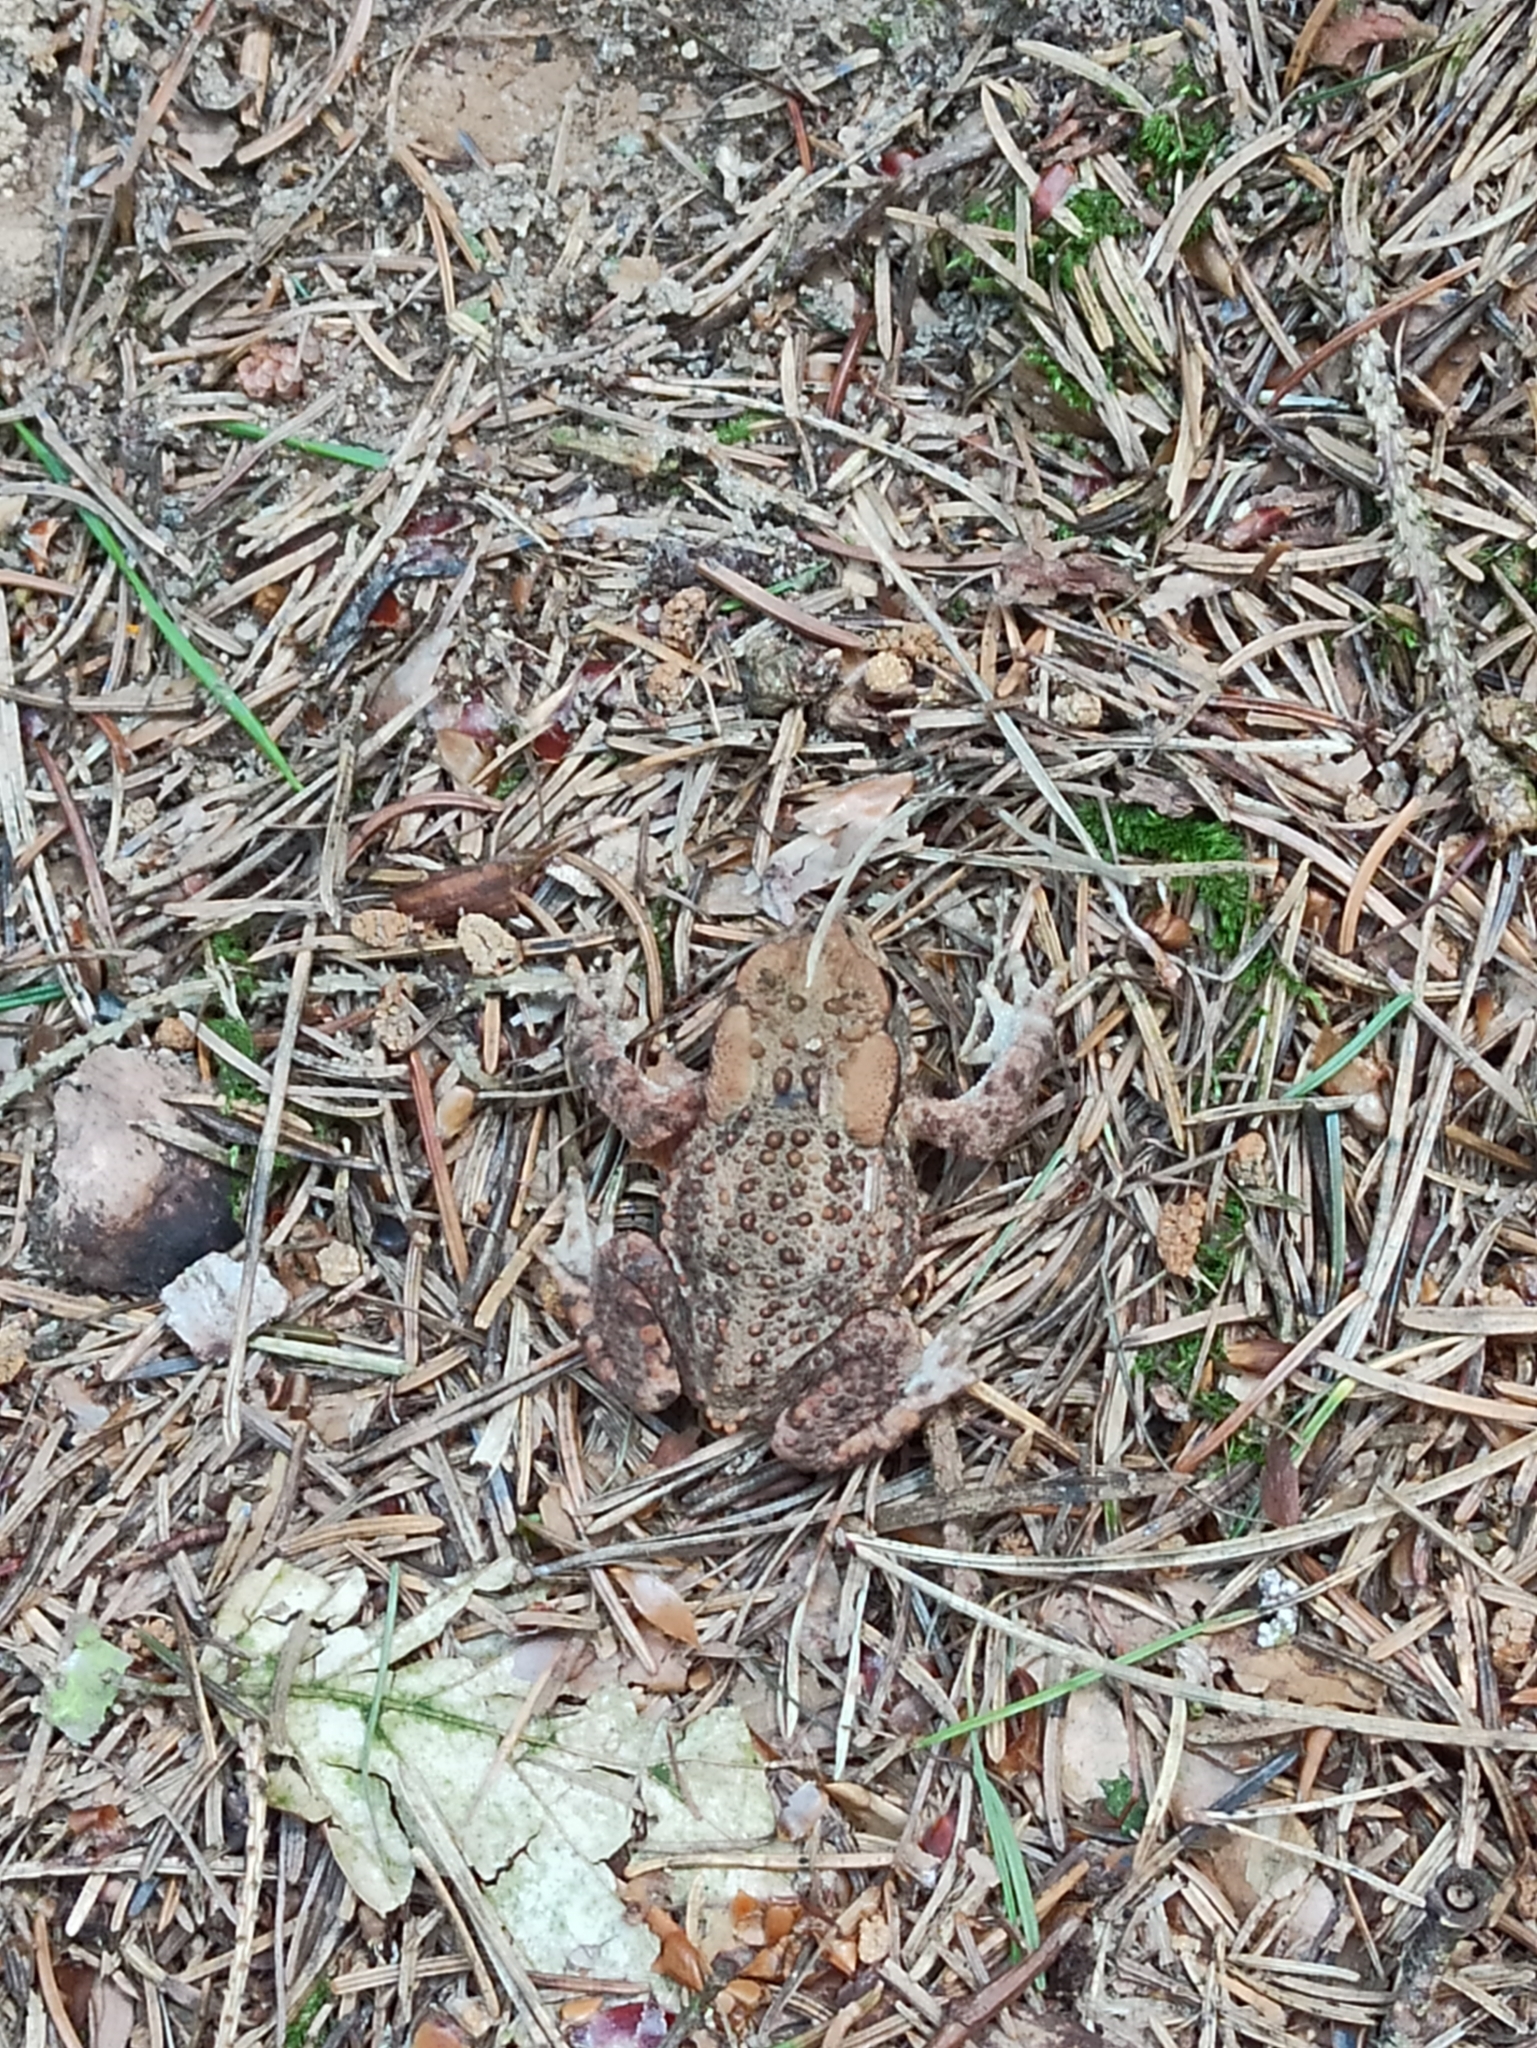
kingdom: Animalia
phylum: Chordata
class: Amphibia
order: Anura
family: Bufonidae
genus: Bufo
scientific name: Bufo bufo
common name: Common toad
